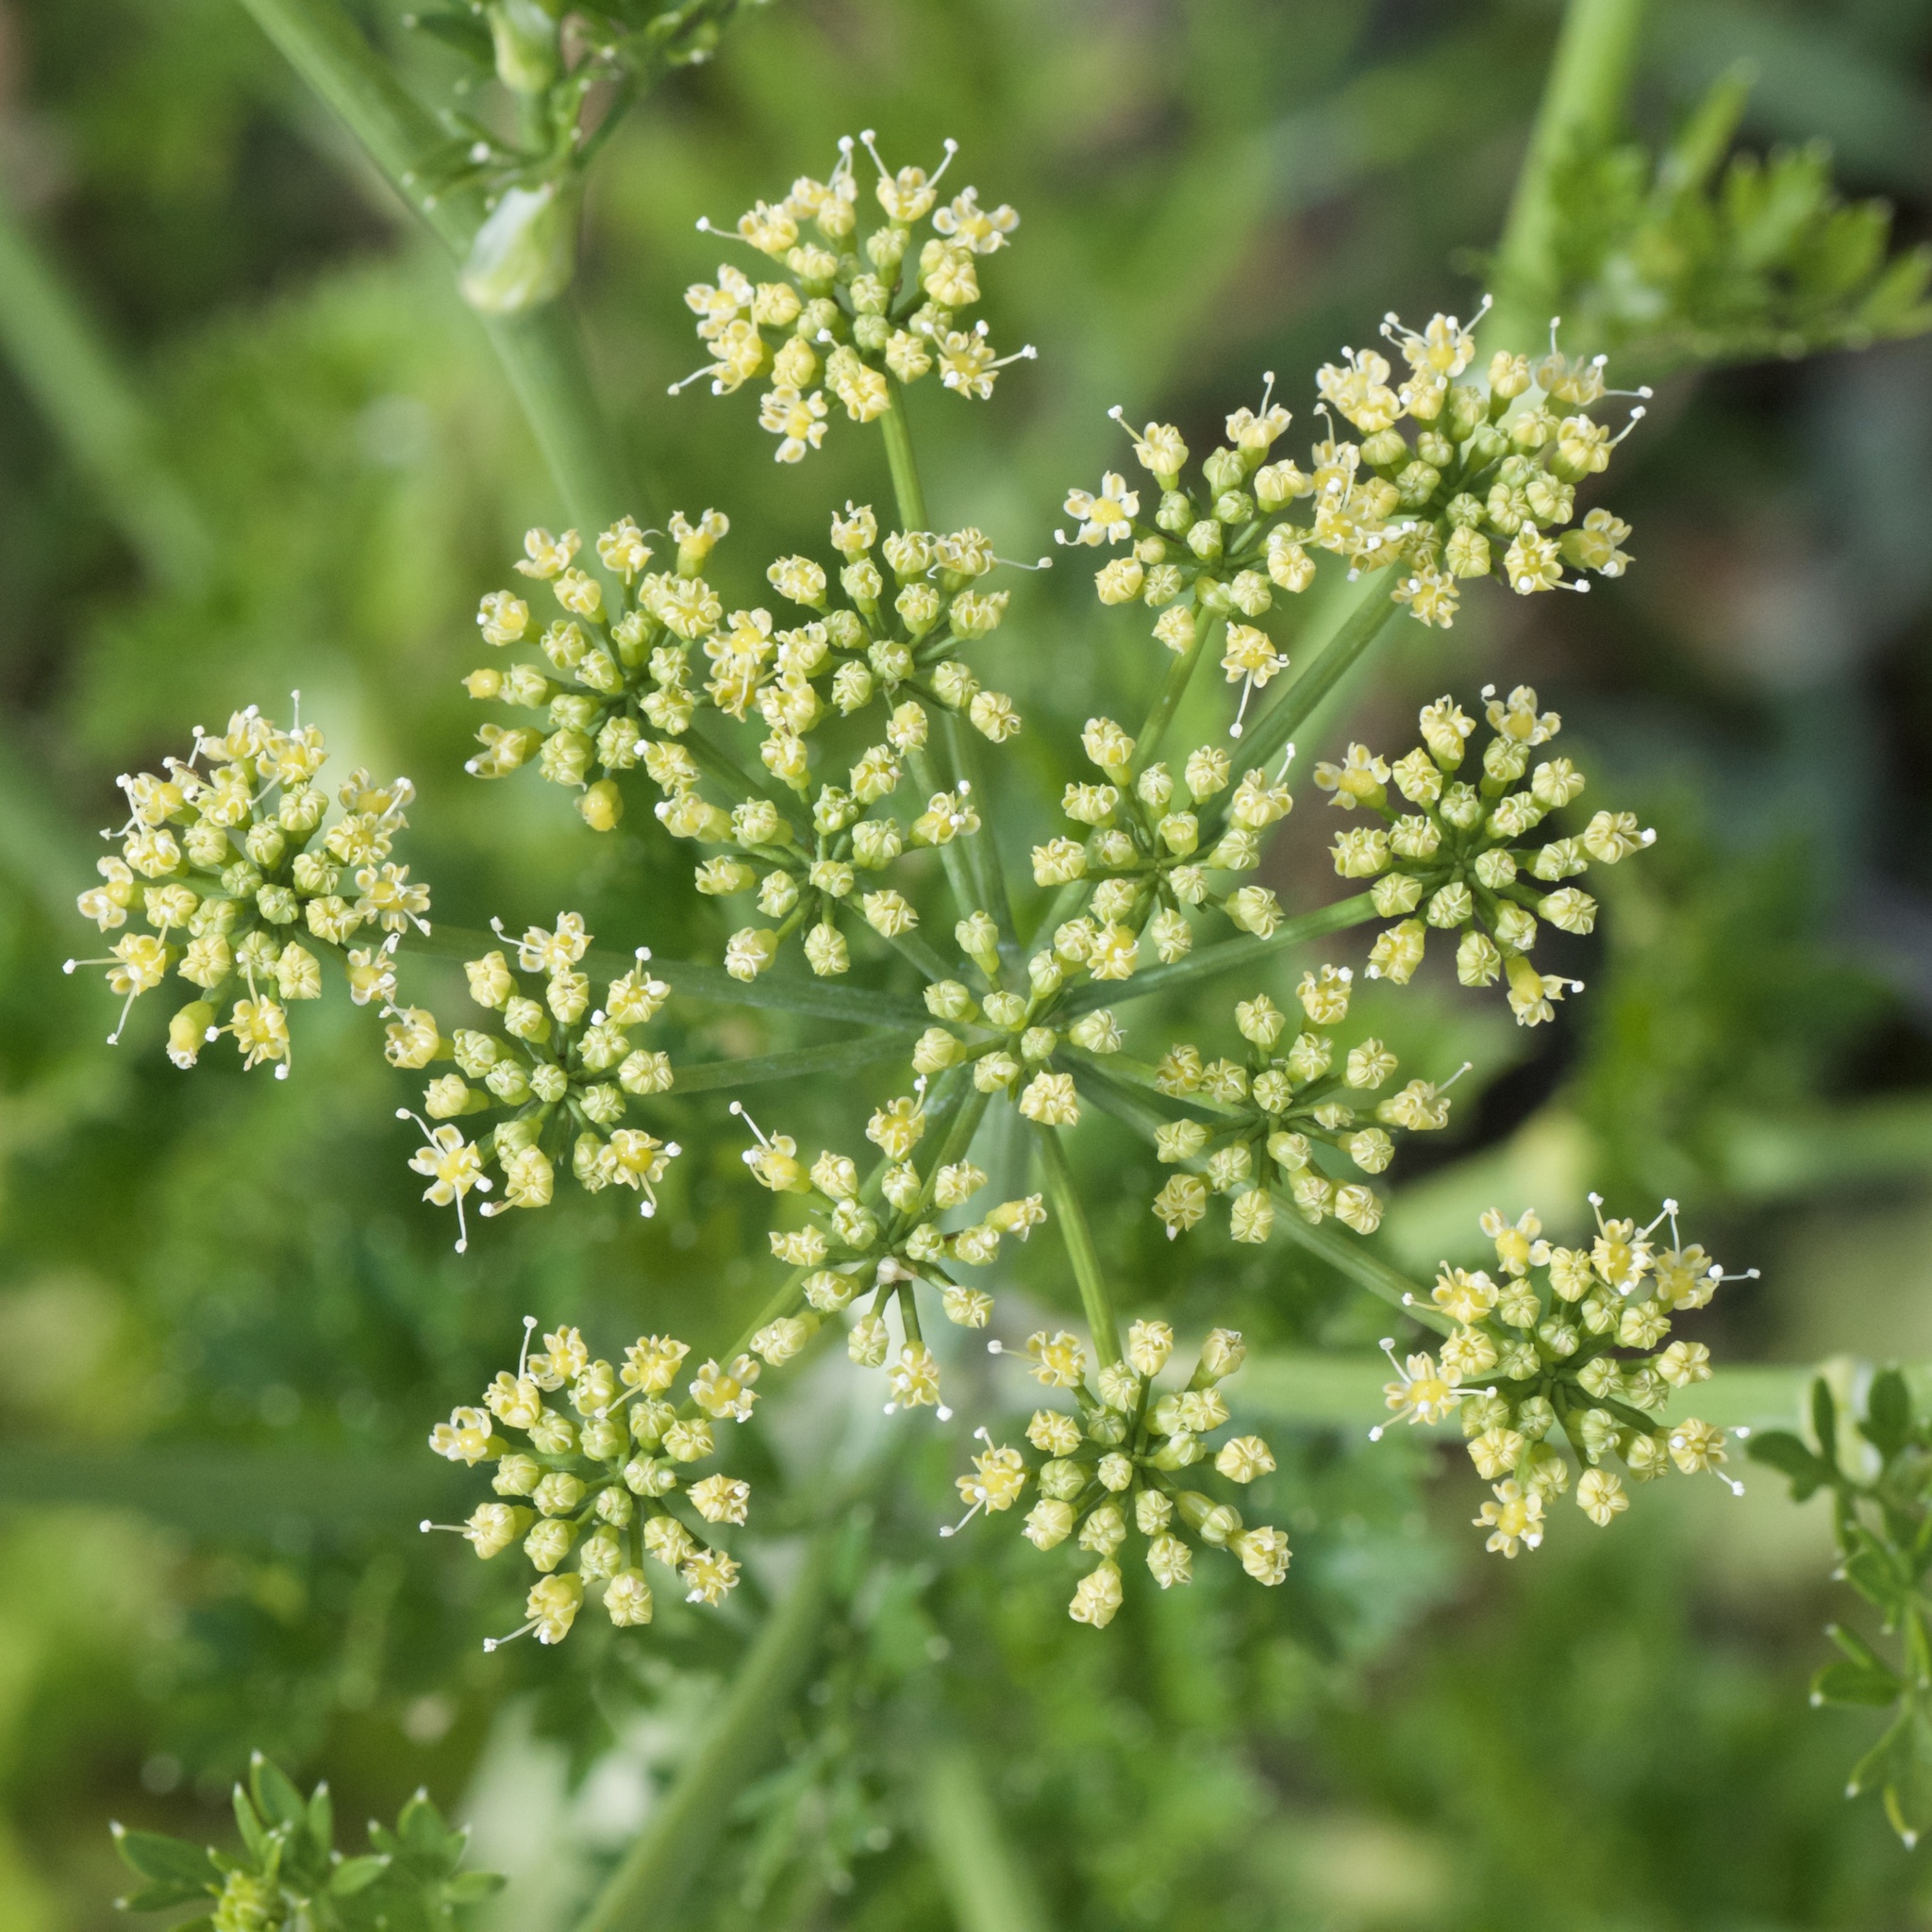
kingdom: Plantae
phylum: Tracheophyta
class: Magnoliopsida
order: Apiales
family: Apiaceae
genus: Petroselinum
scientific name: Petroselinum crispum
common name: Parsley
